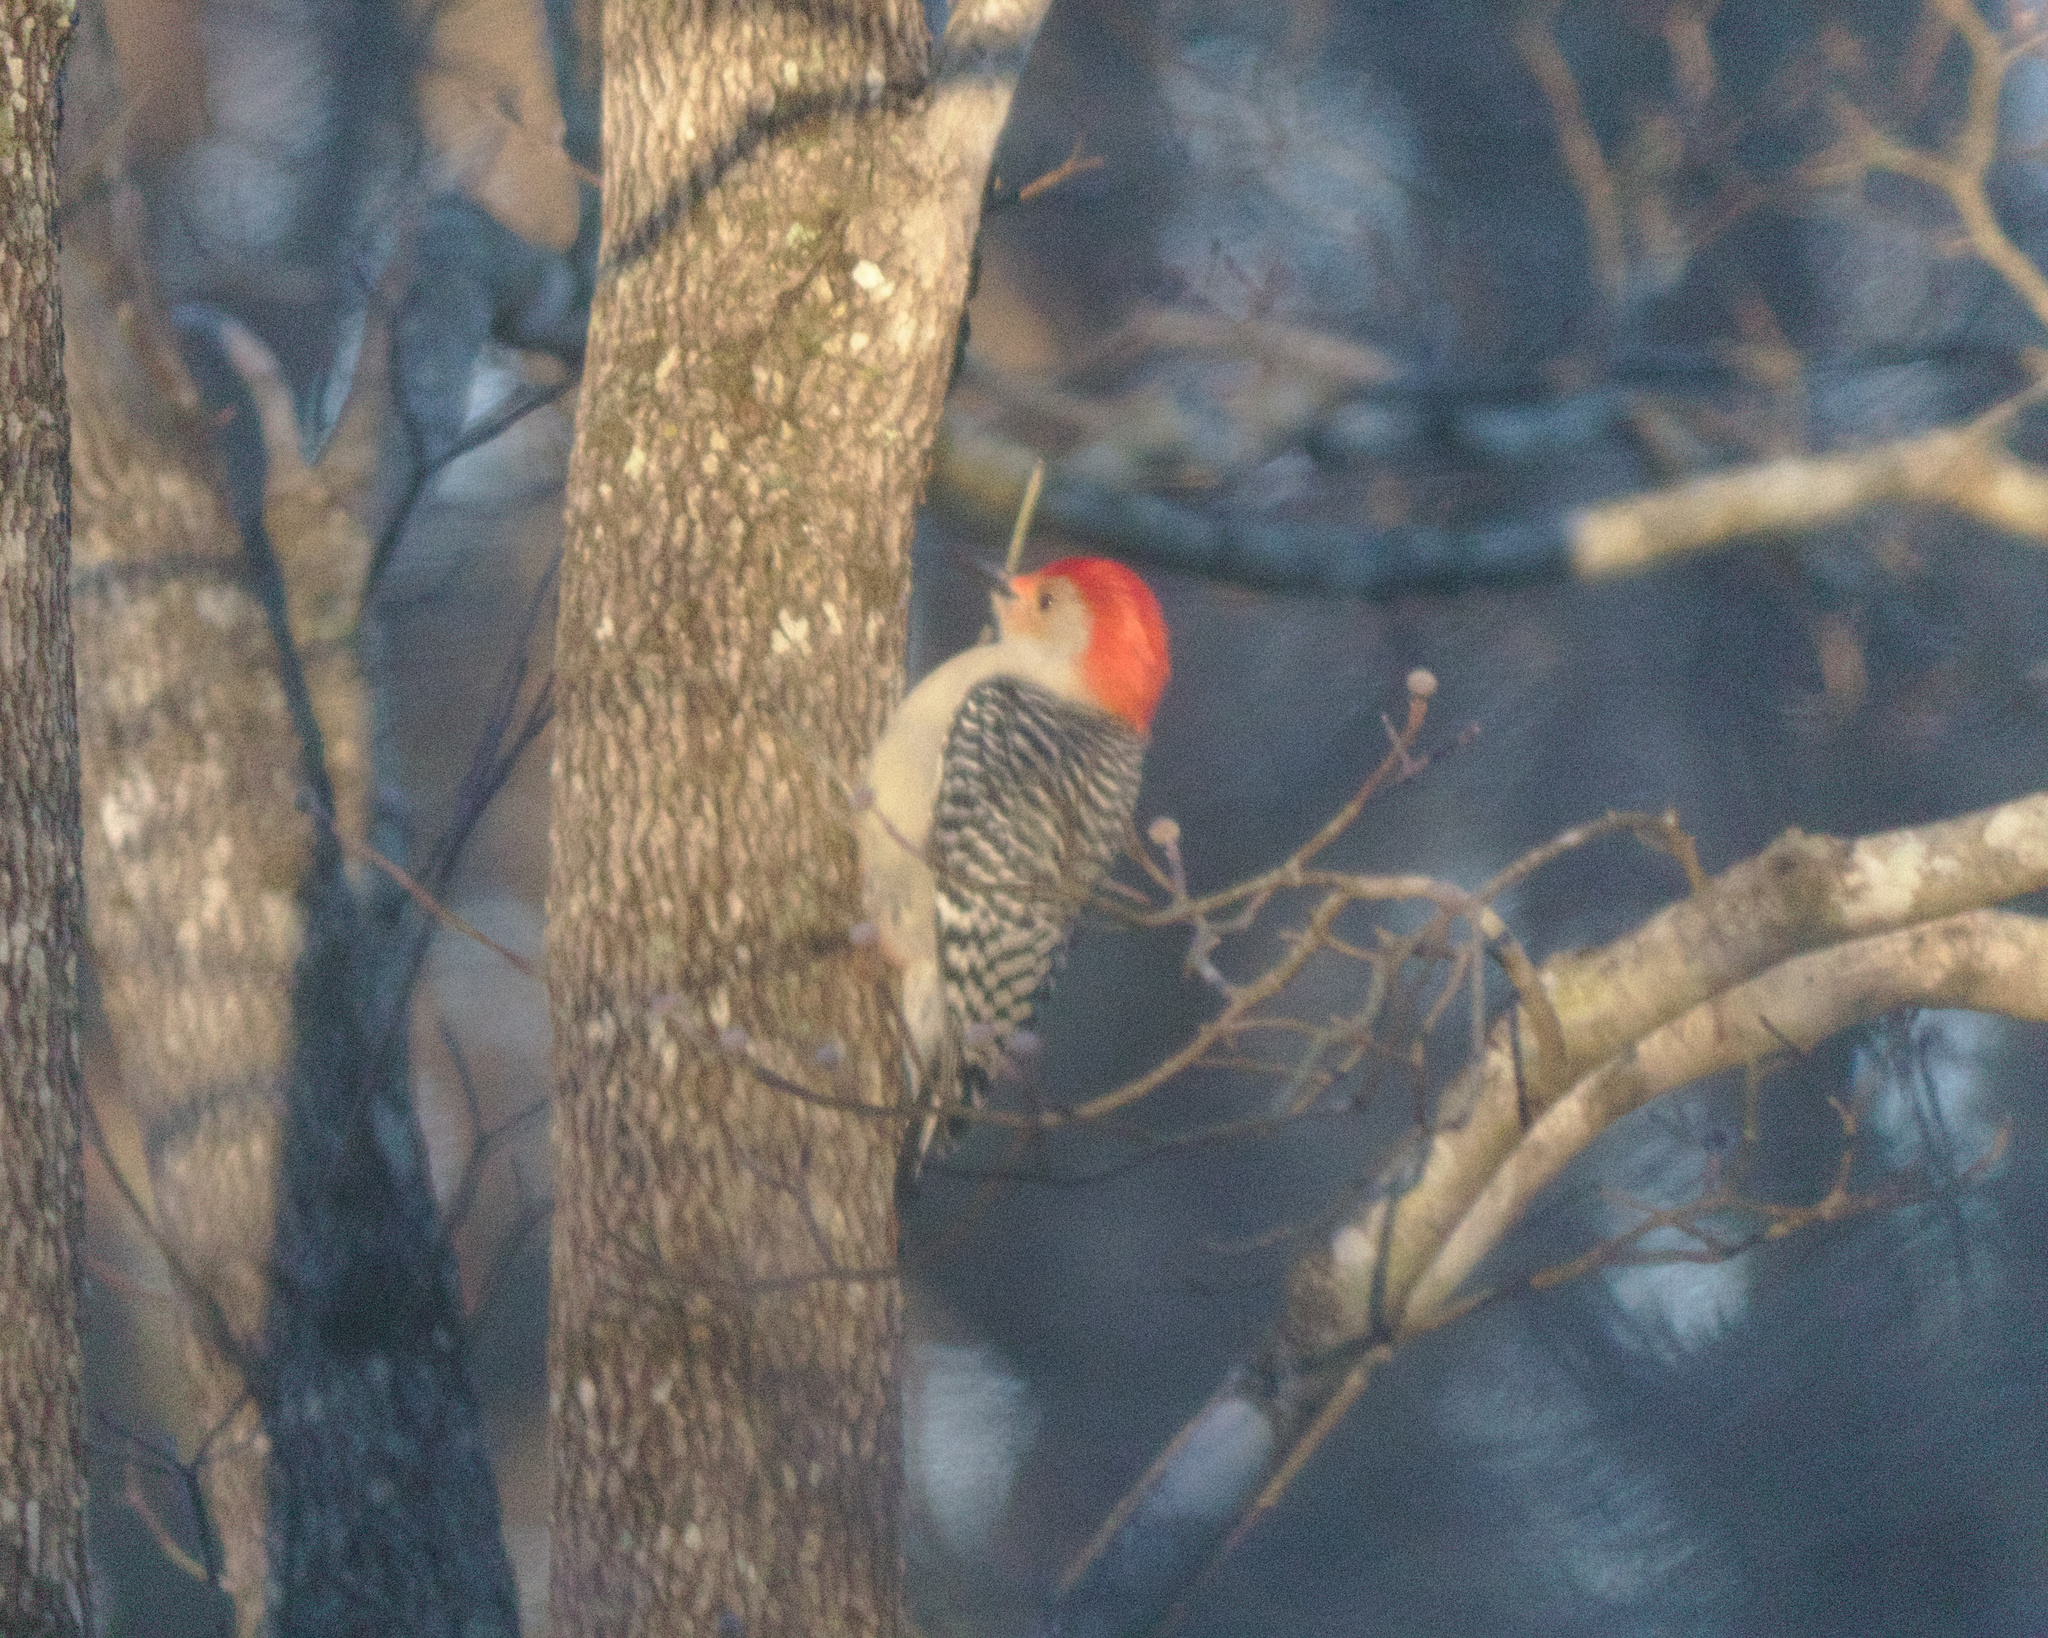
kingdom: Animalia
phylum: Chordata
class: Aves
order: Piciformes
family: Picidae
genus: Melanerpes
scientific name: Melanerpes carolinus
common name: Red-bellied woodpecker
